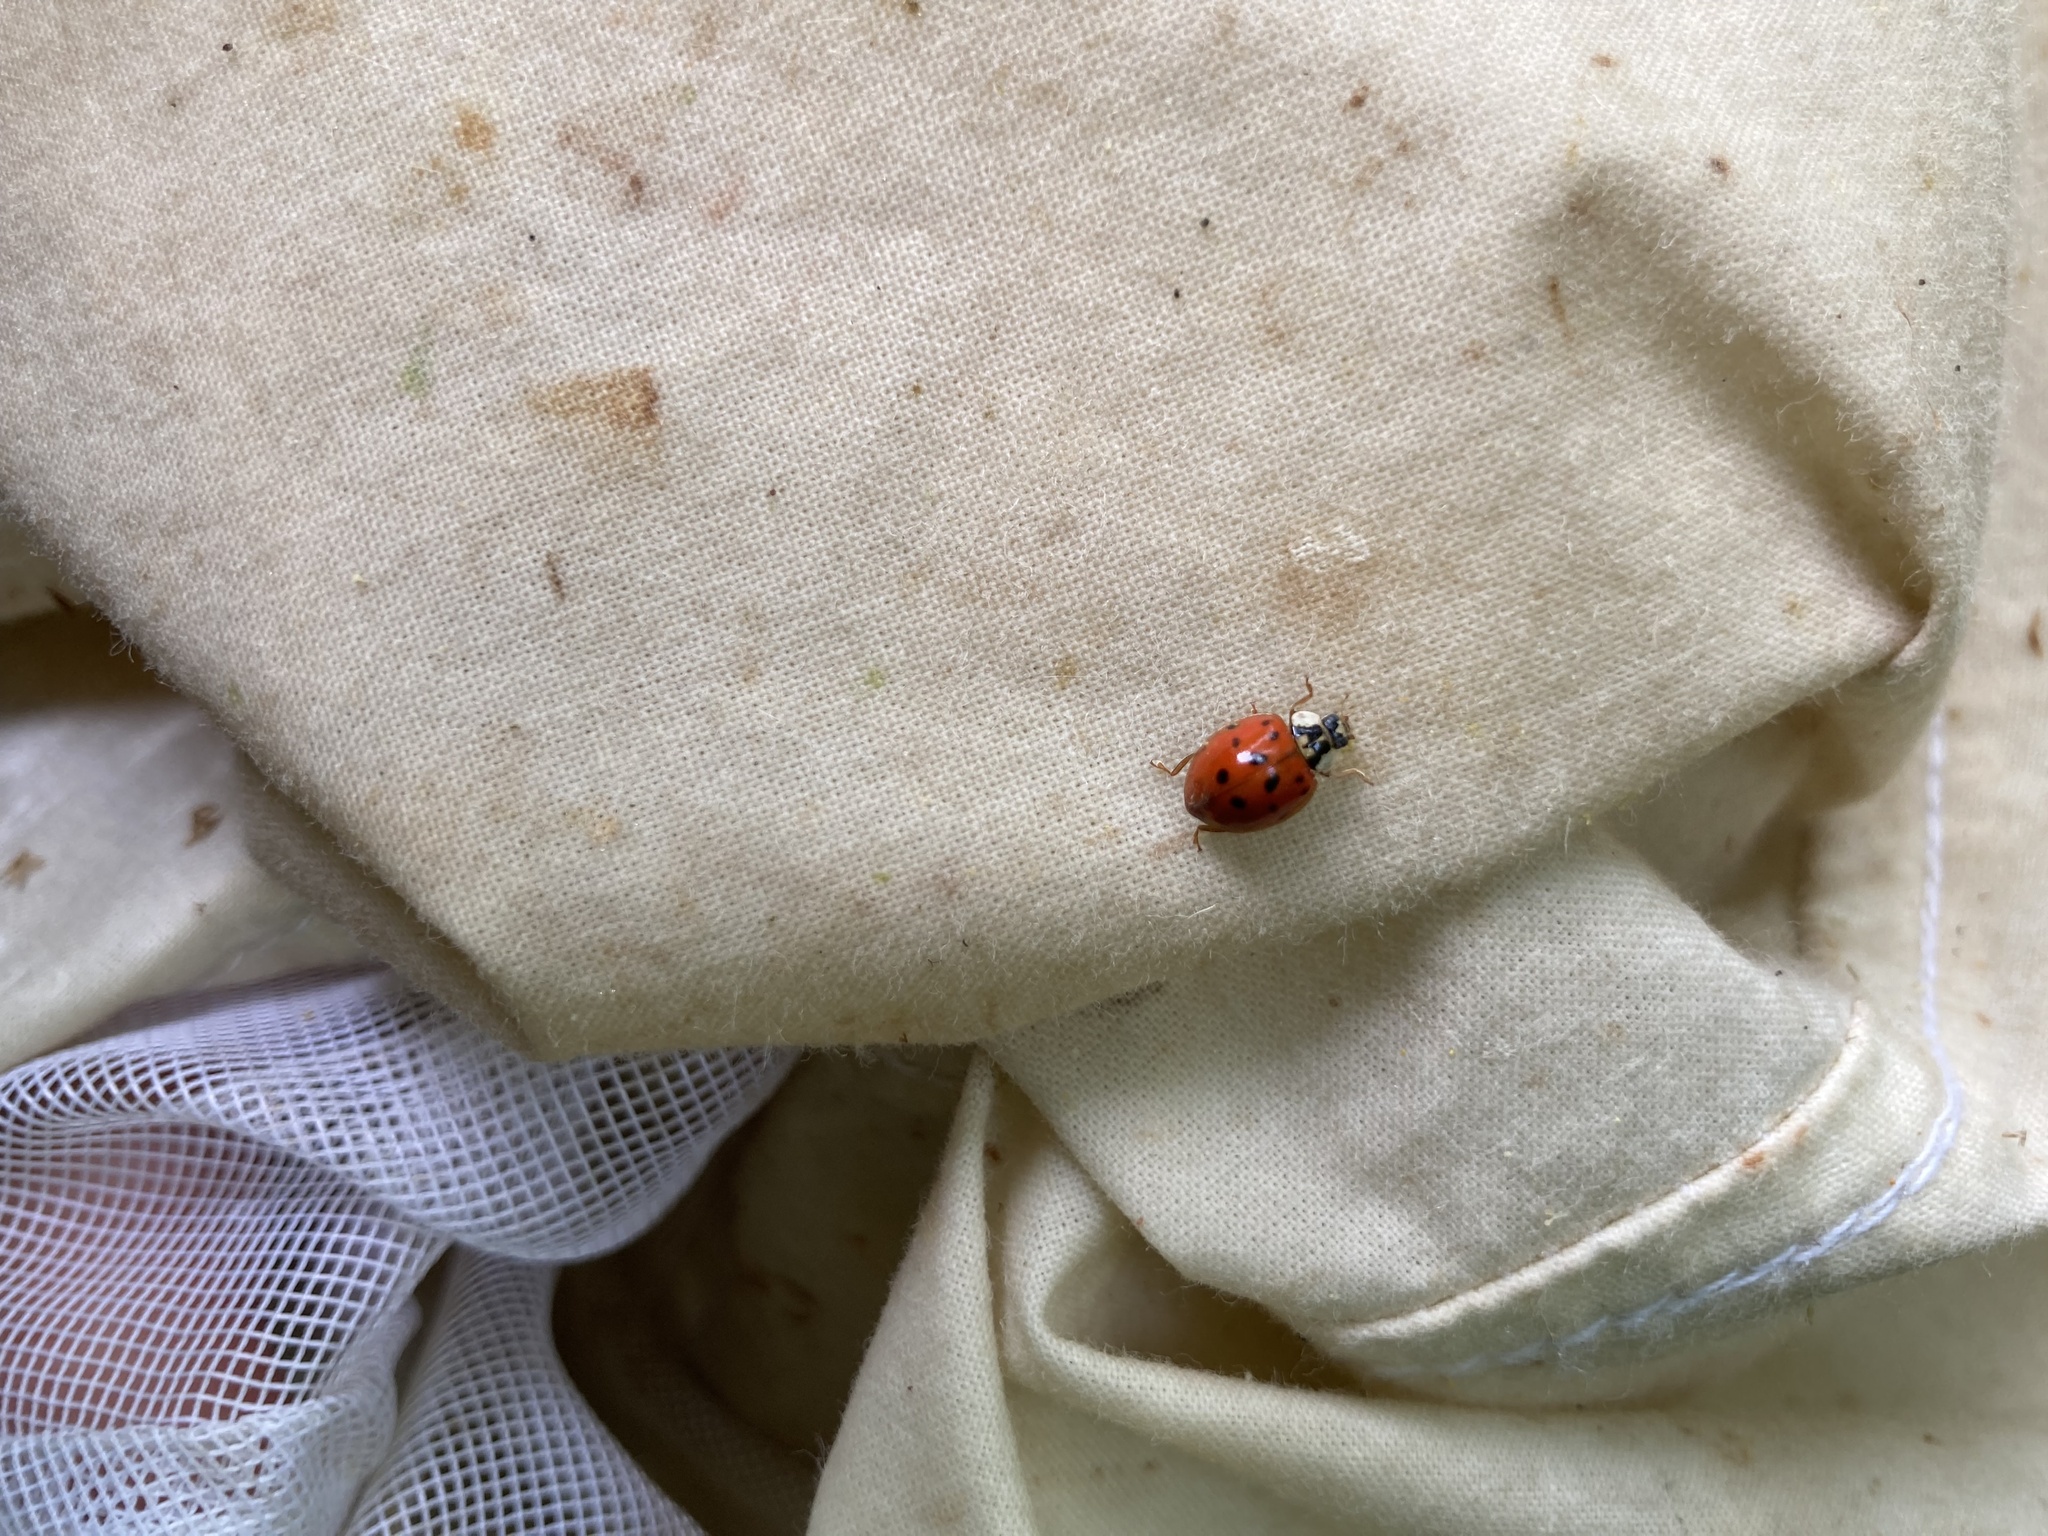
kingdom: Animalia
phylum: Arthropoda
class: Insecta
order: Coleoptera
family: Coccinellidae
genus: Harmonia
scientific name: Harmonia axyridis
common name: Harlequin ladybird
